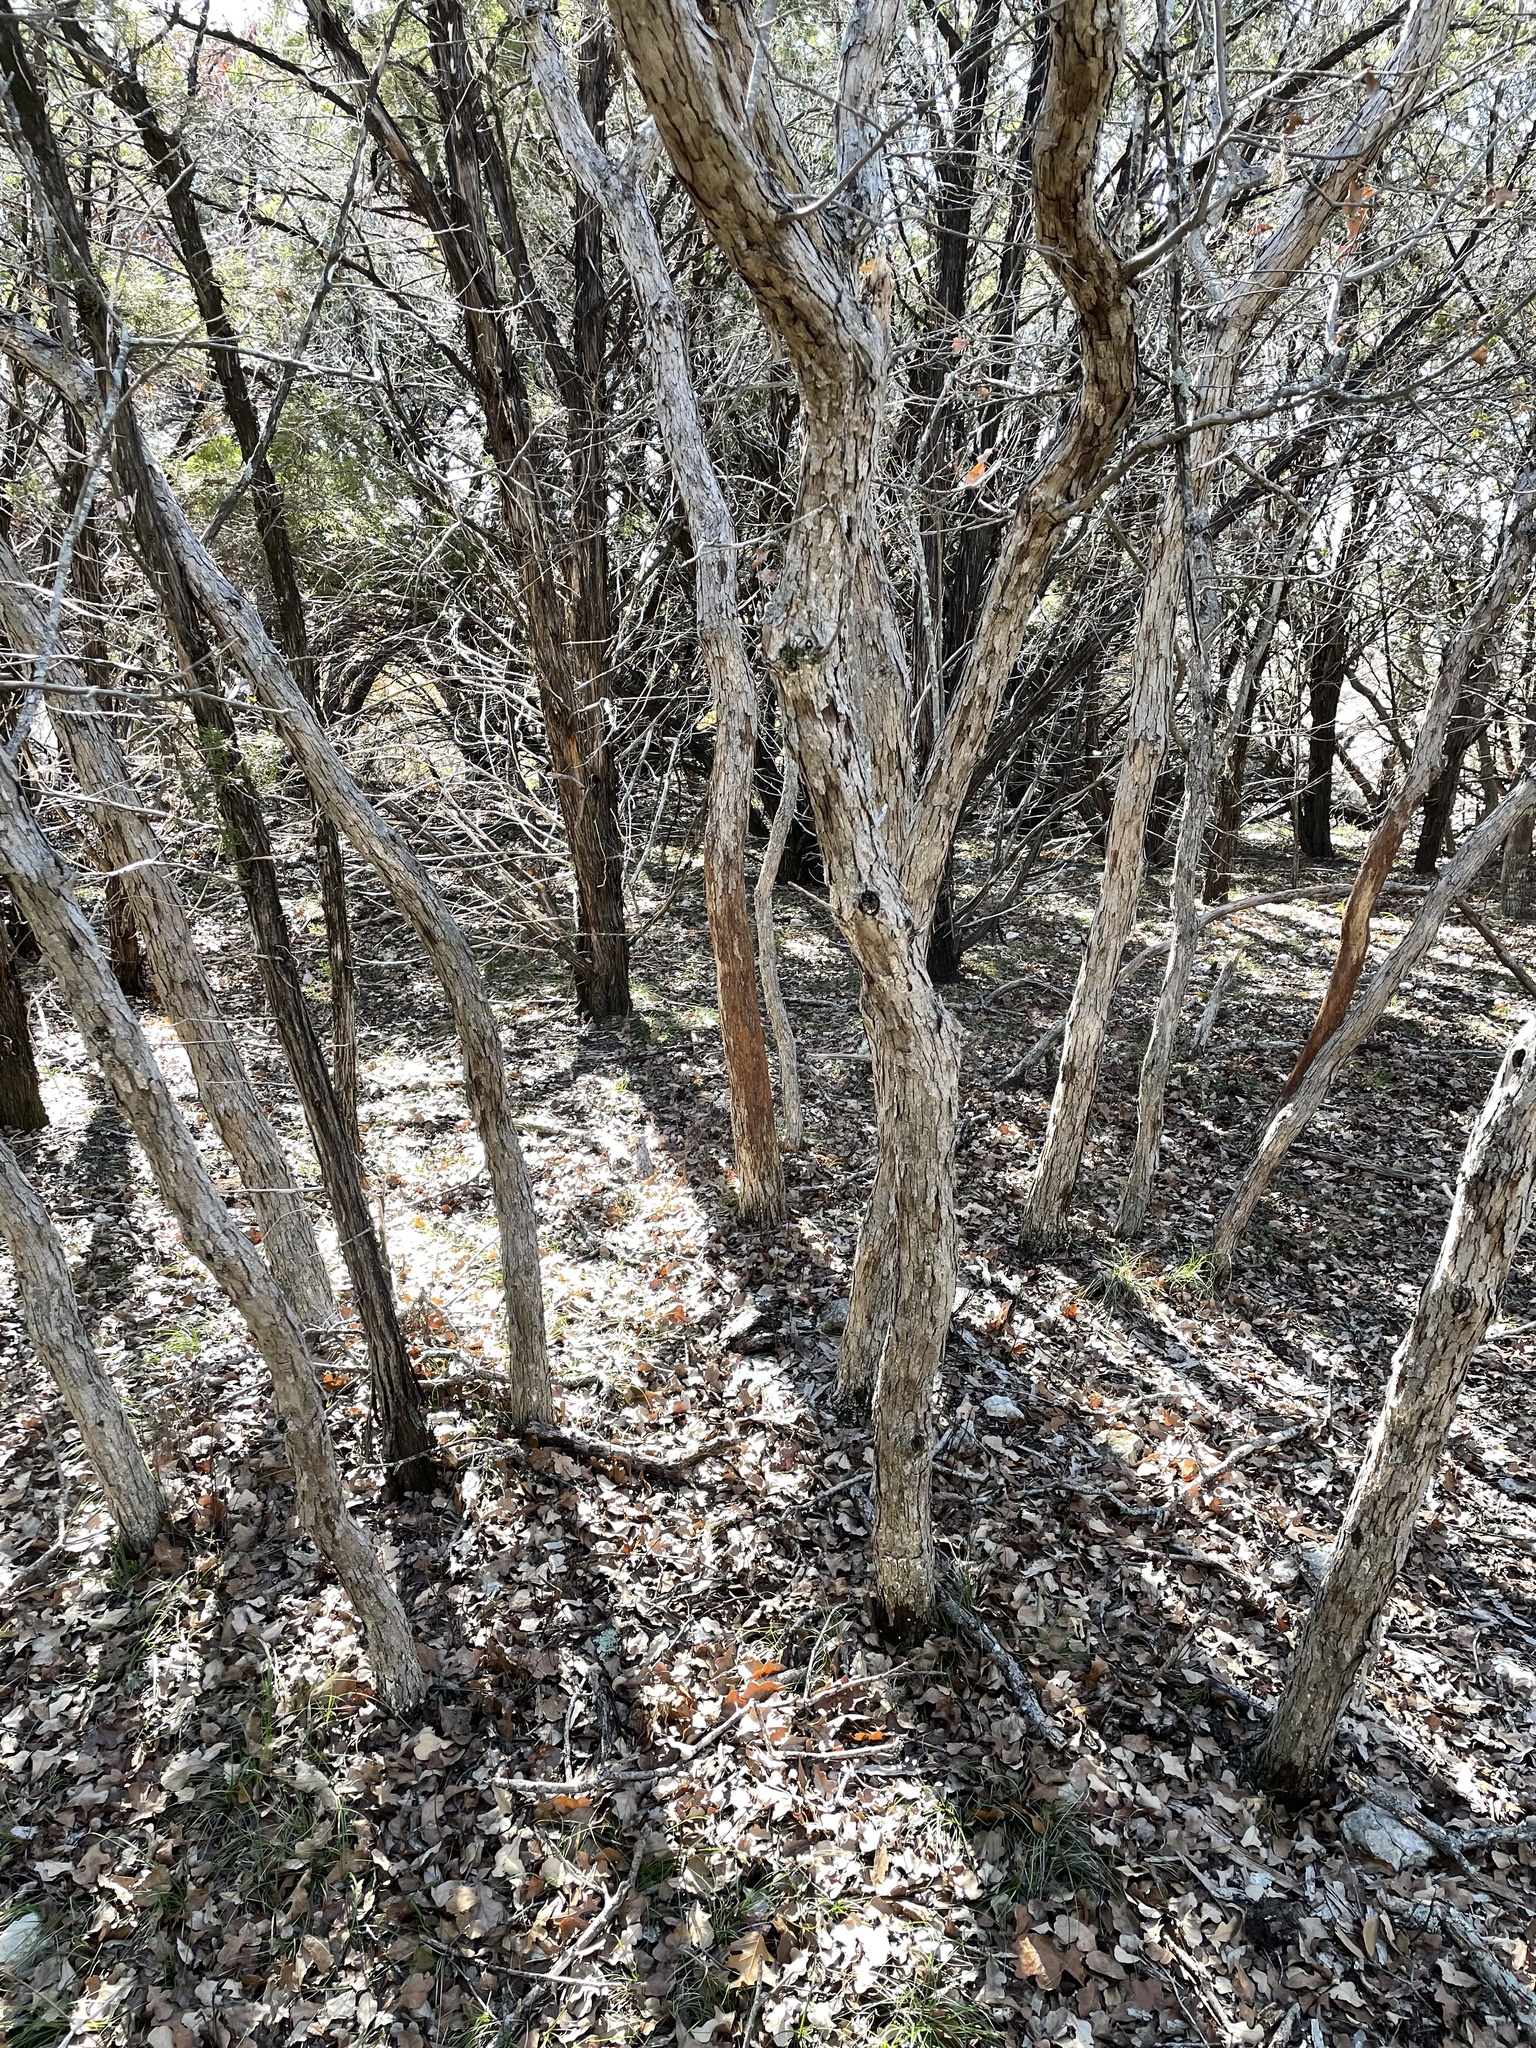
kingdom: Plantae
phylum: Tracheophyta
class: Magnoliopsida
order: Fagales
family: Fagaceae
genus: Quercus
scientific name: Quercus sinuata
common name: Durand oak
